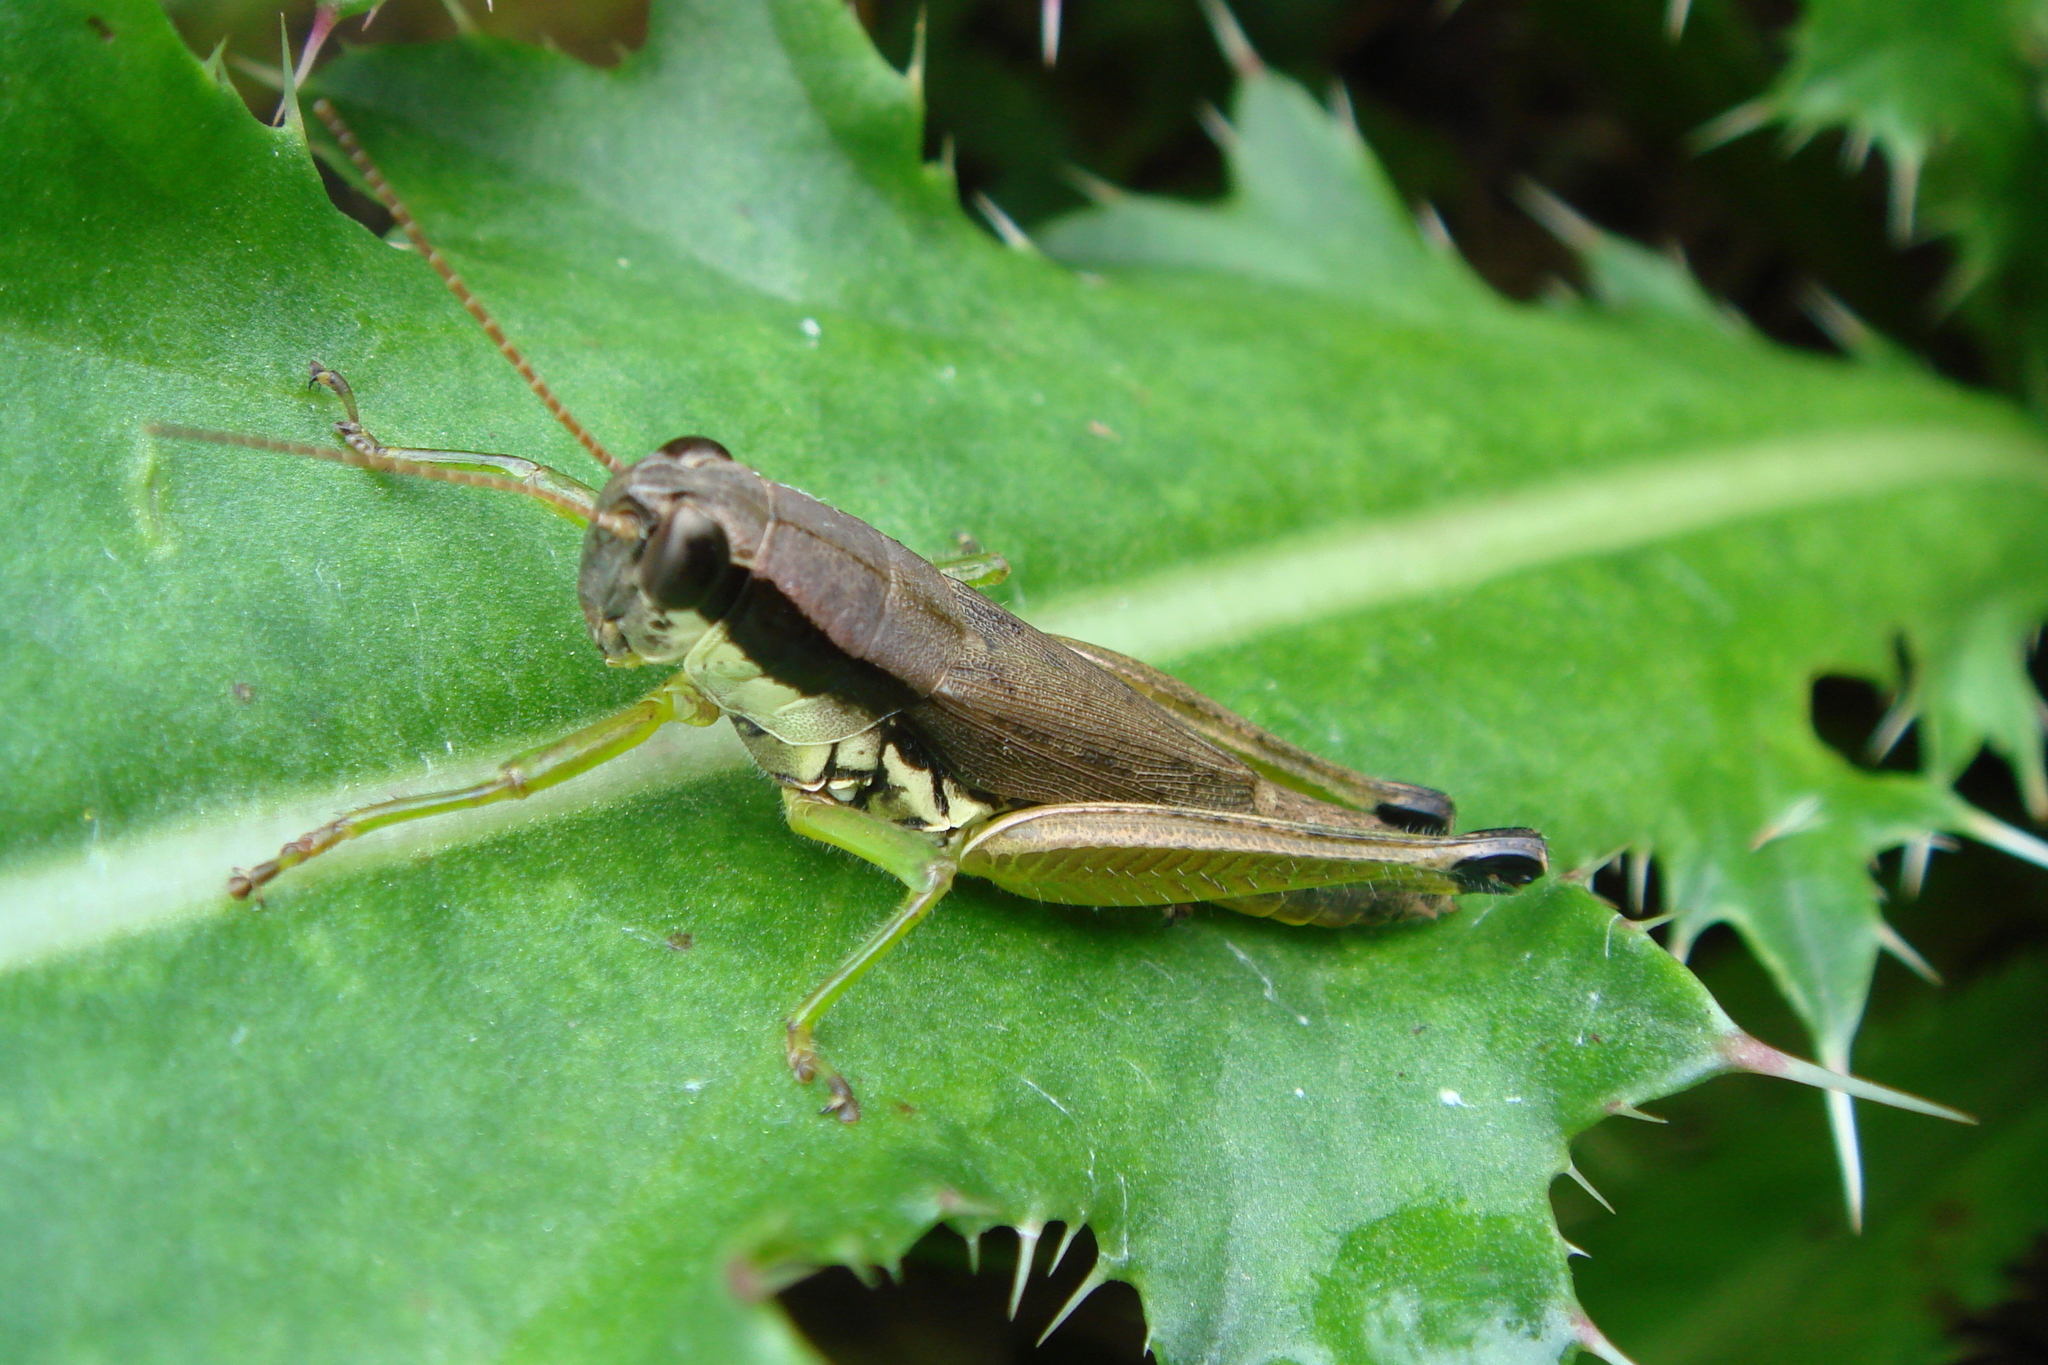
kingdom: Animalia
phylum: Arthropoda
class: Insecta
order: Orthoptera
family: Acrididae
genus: Paroxya
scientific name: Paroxya clavuligera
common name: Olive-green swamp grasshopper
